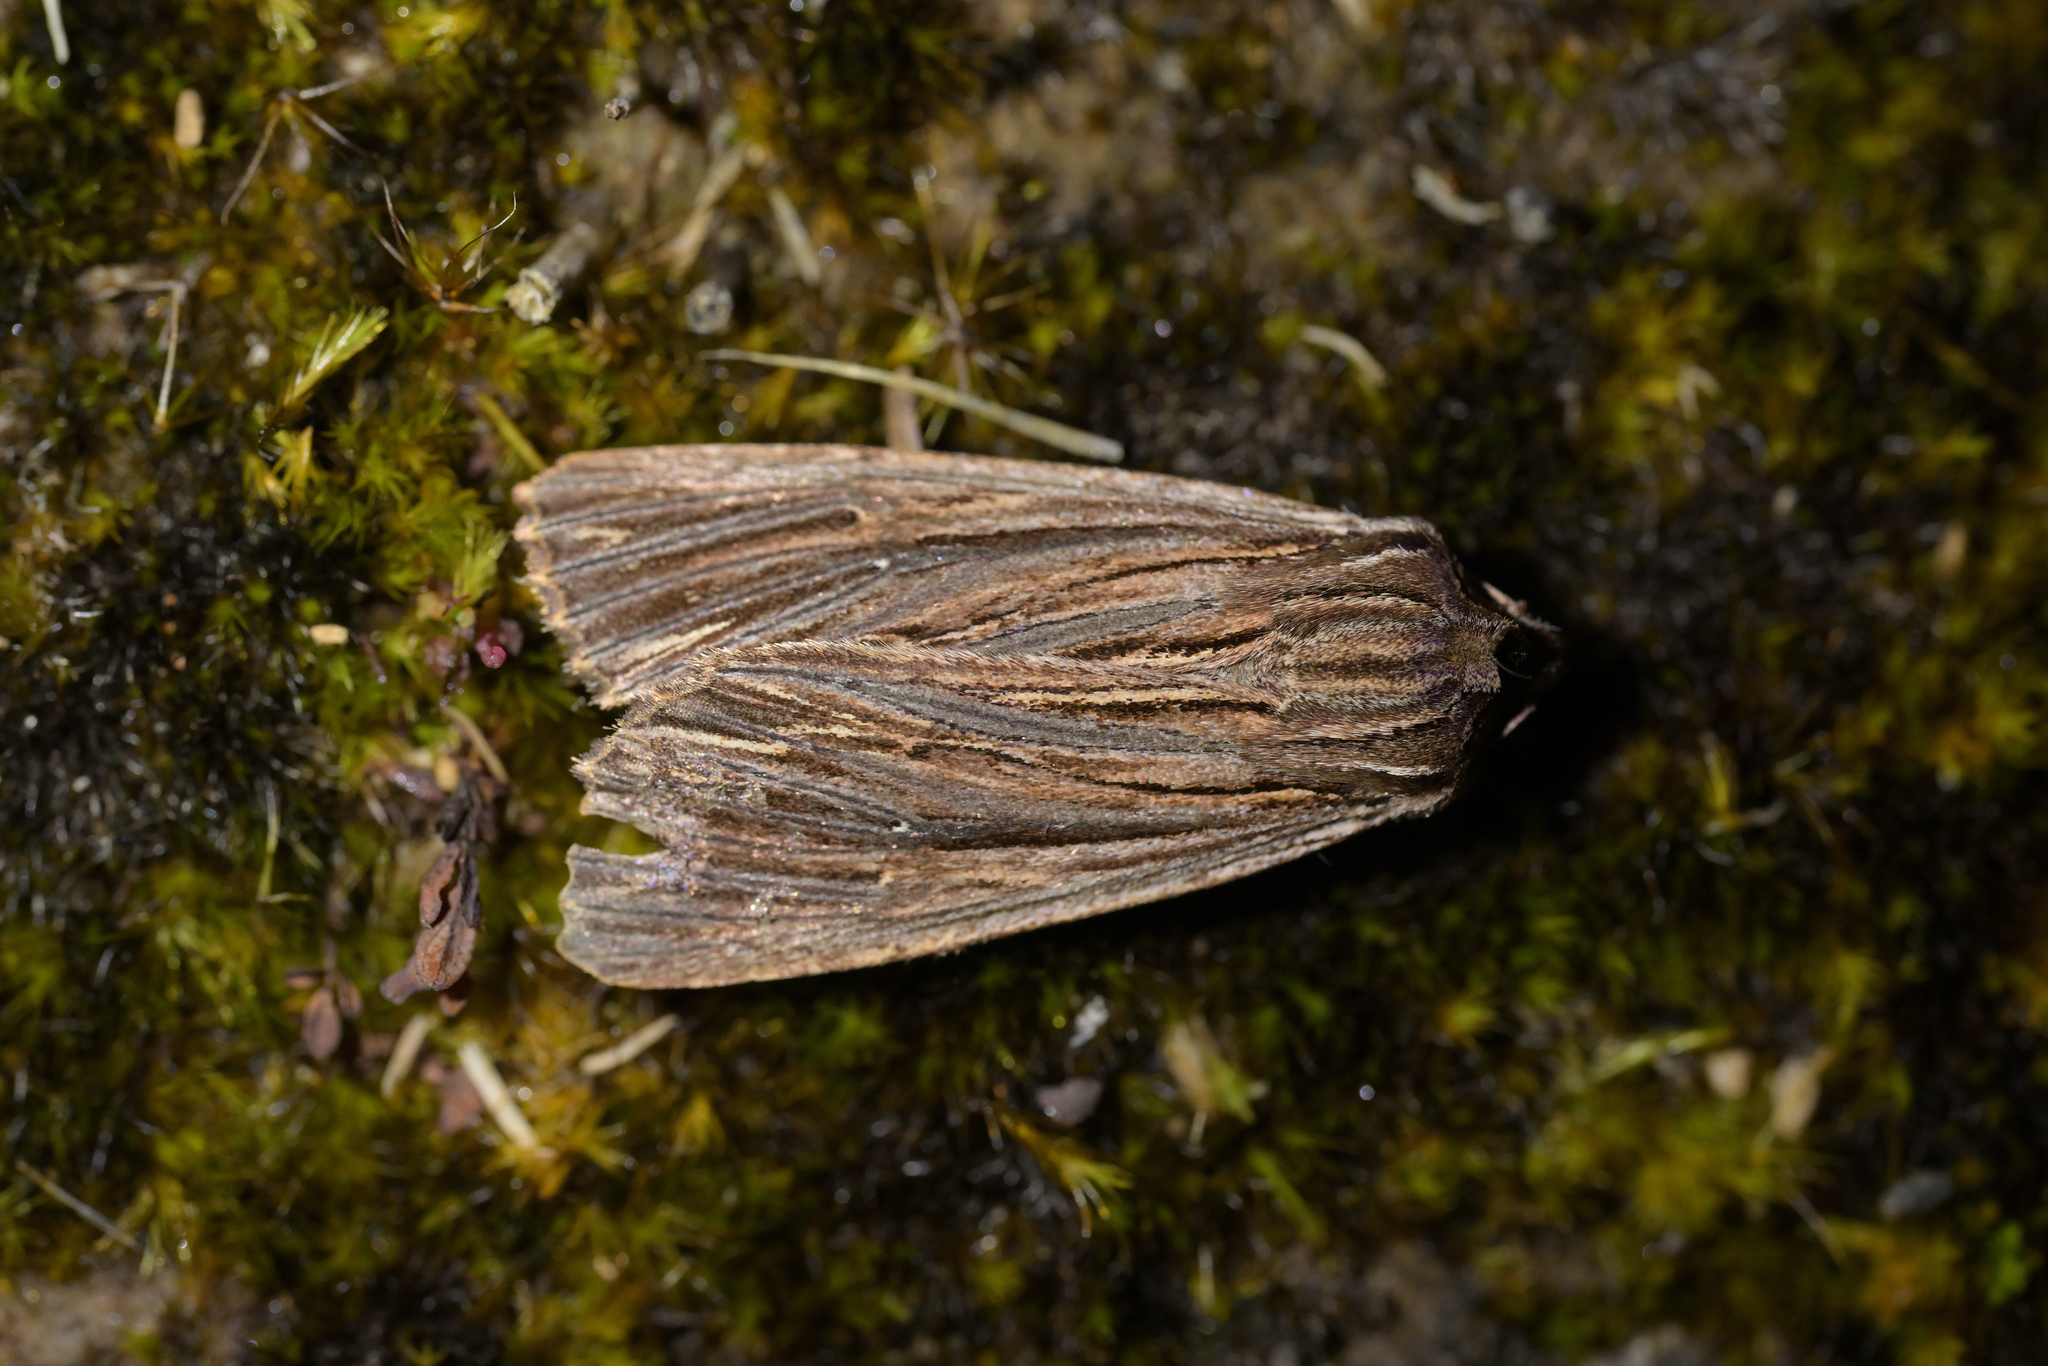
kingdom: Animalia
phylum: Arthropoda
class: Insecta
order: Lepidoptera
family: Noctuidae
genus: Ichneutica
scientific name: Ichneutica
